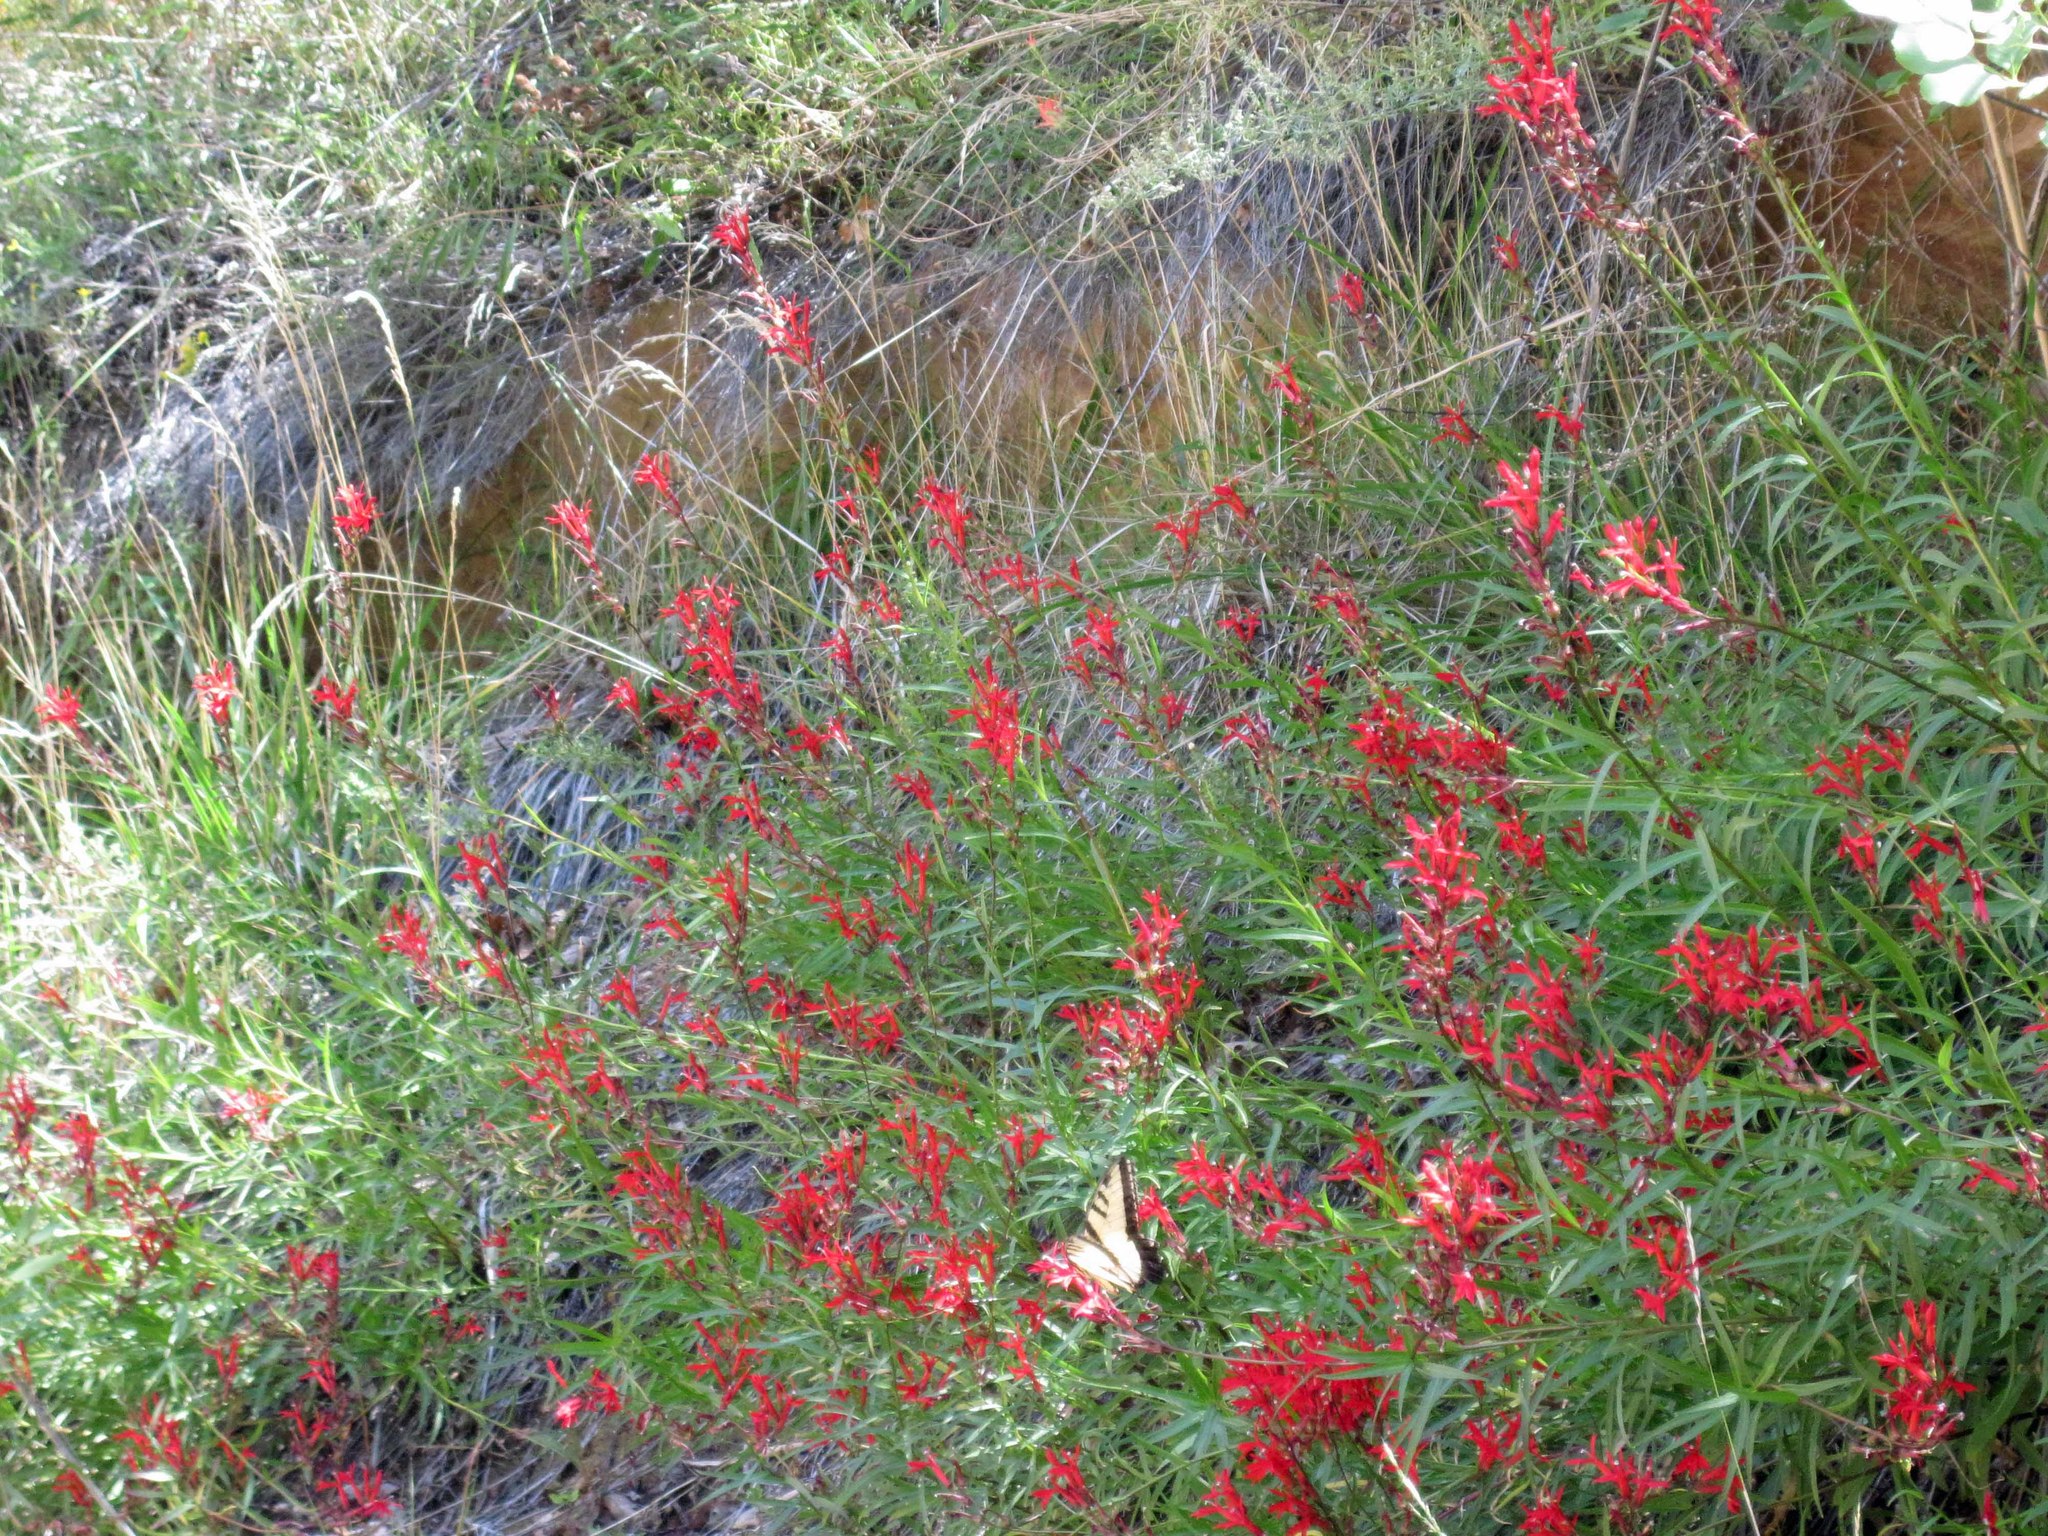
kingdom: Plantae
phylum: Tracheophyta
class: Magnoliopsida
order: Asterales
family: Campanulaceae
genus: Lobelia
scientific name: Lobelia cardinalis
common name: Cardinal flower
